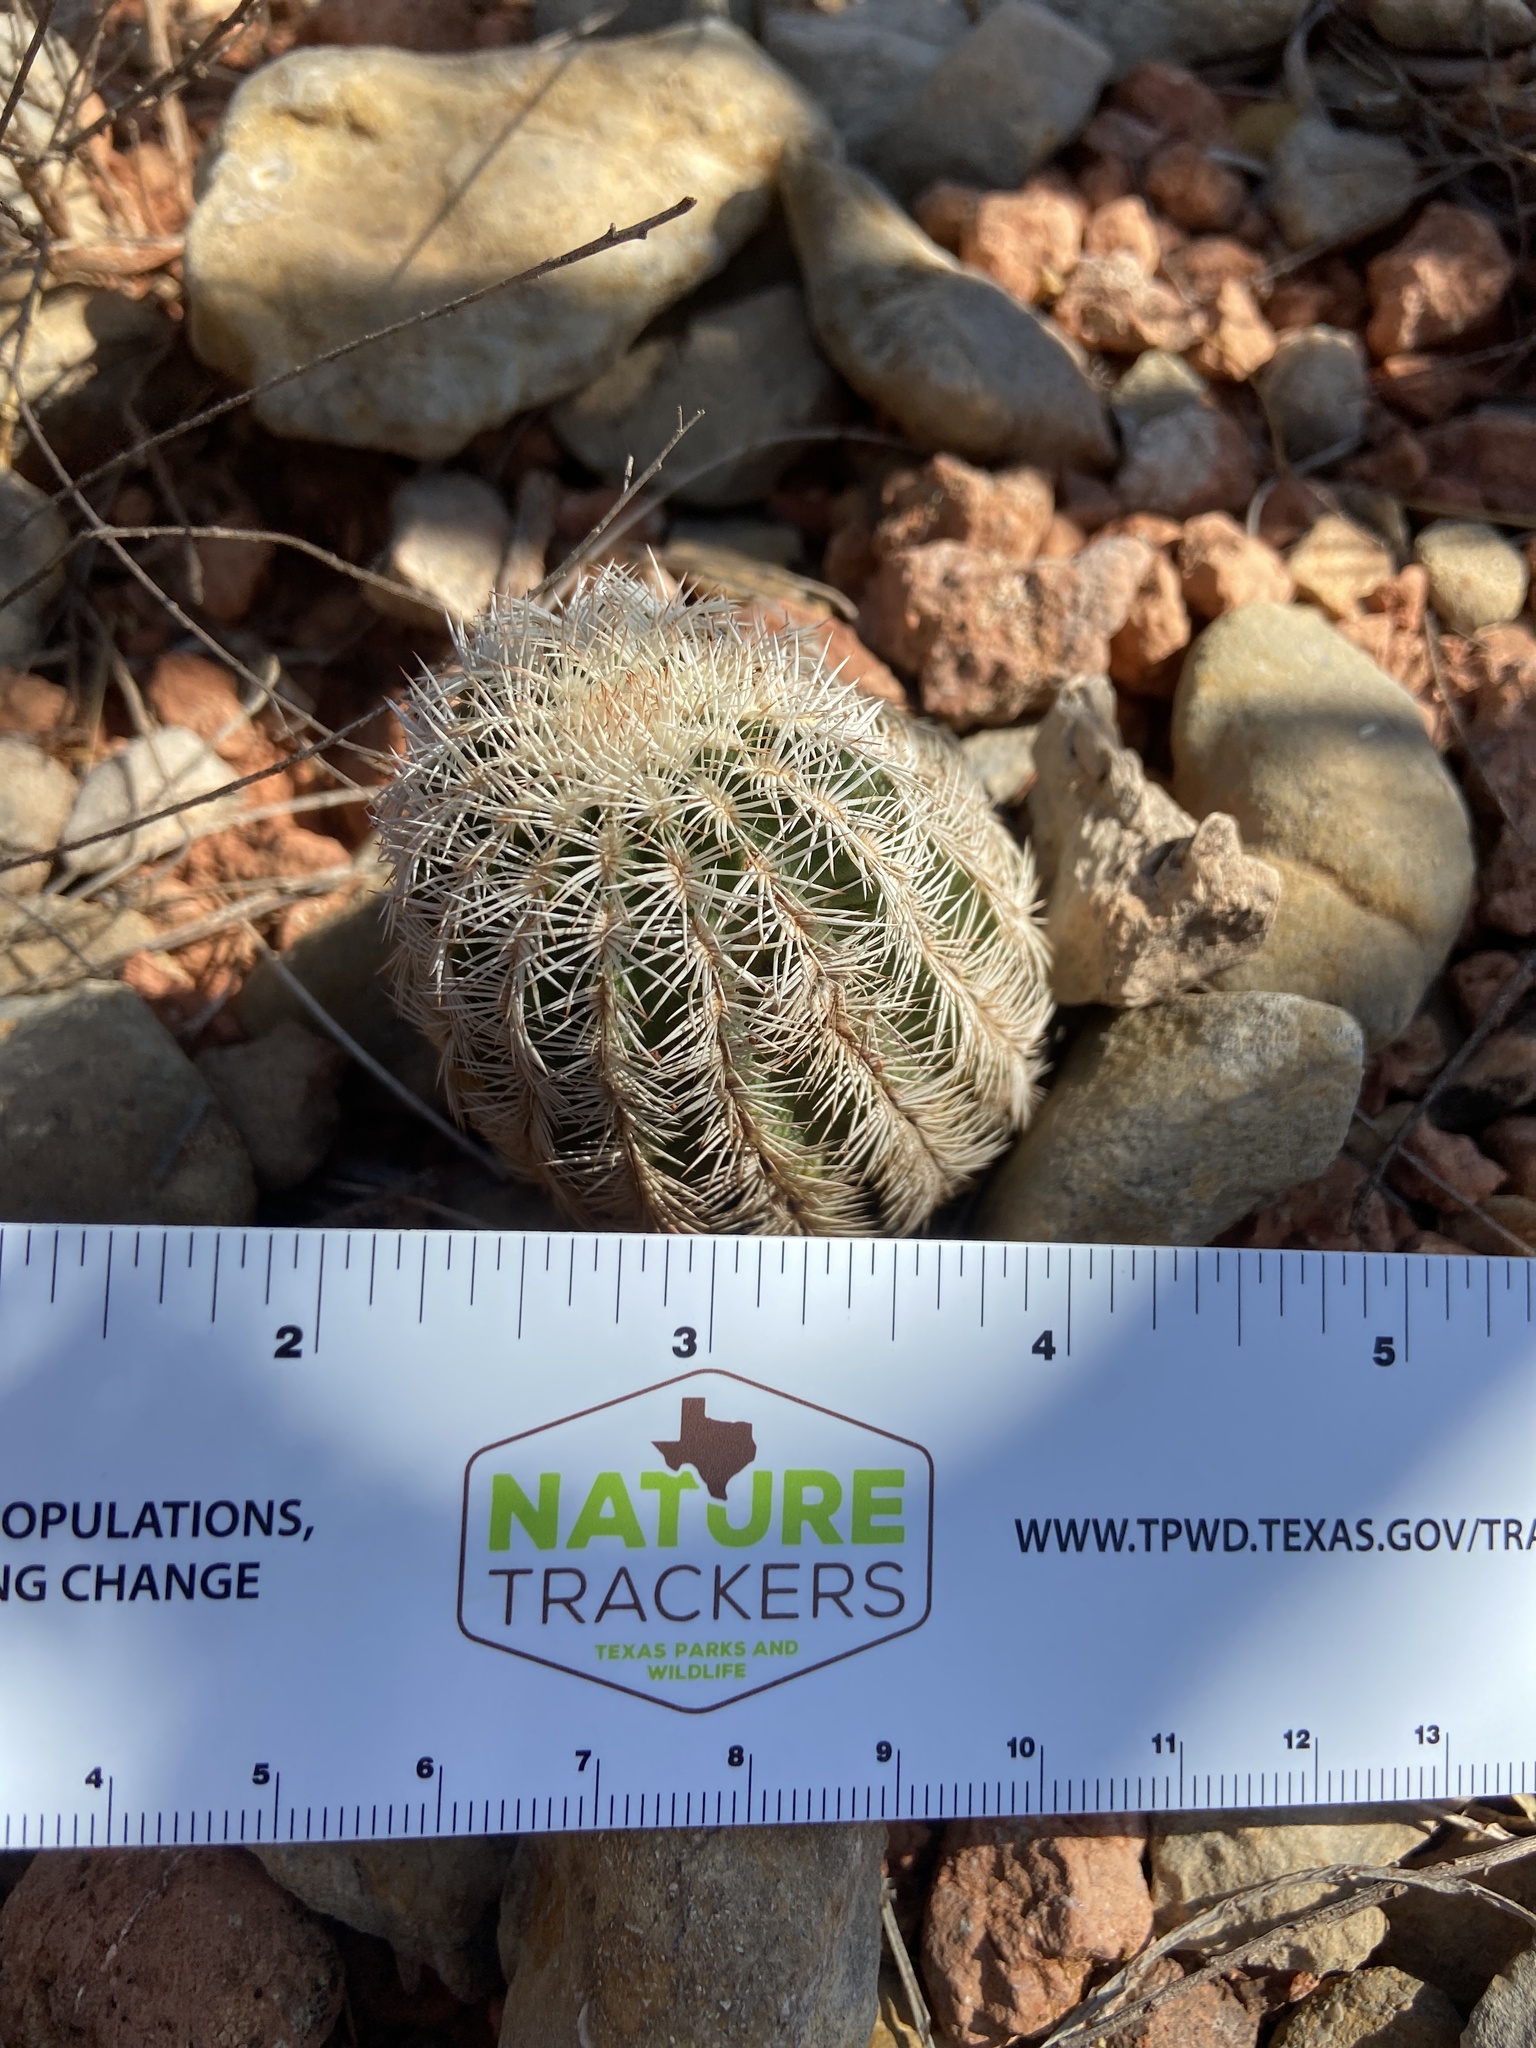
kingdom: Plantae
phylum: Tracheophyta
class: Magnoliopsida
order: Caryophyllales
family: Cactaceae
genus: Echinocereus
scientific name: Echinocereus reichenbachii
